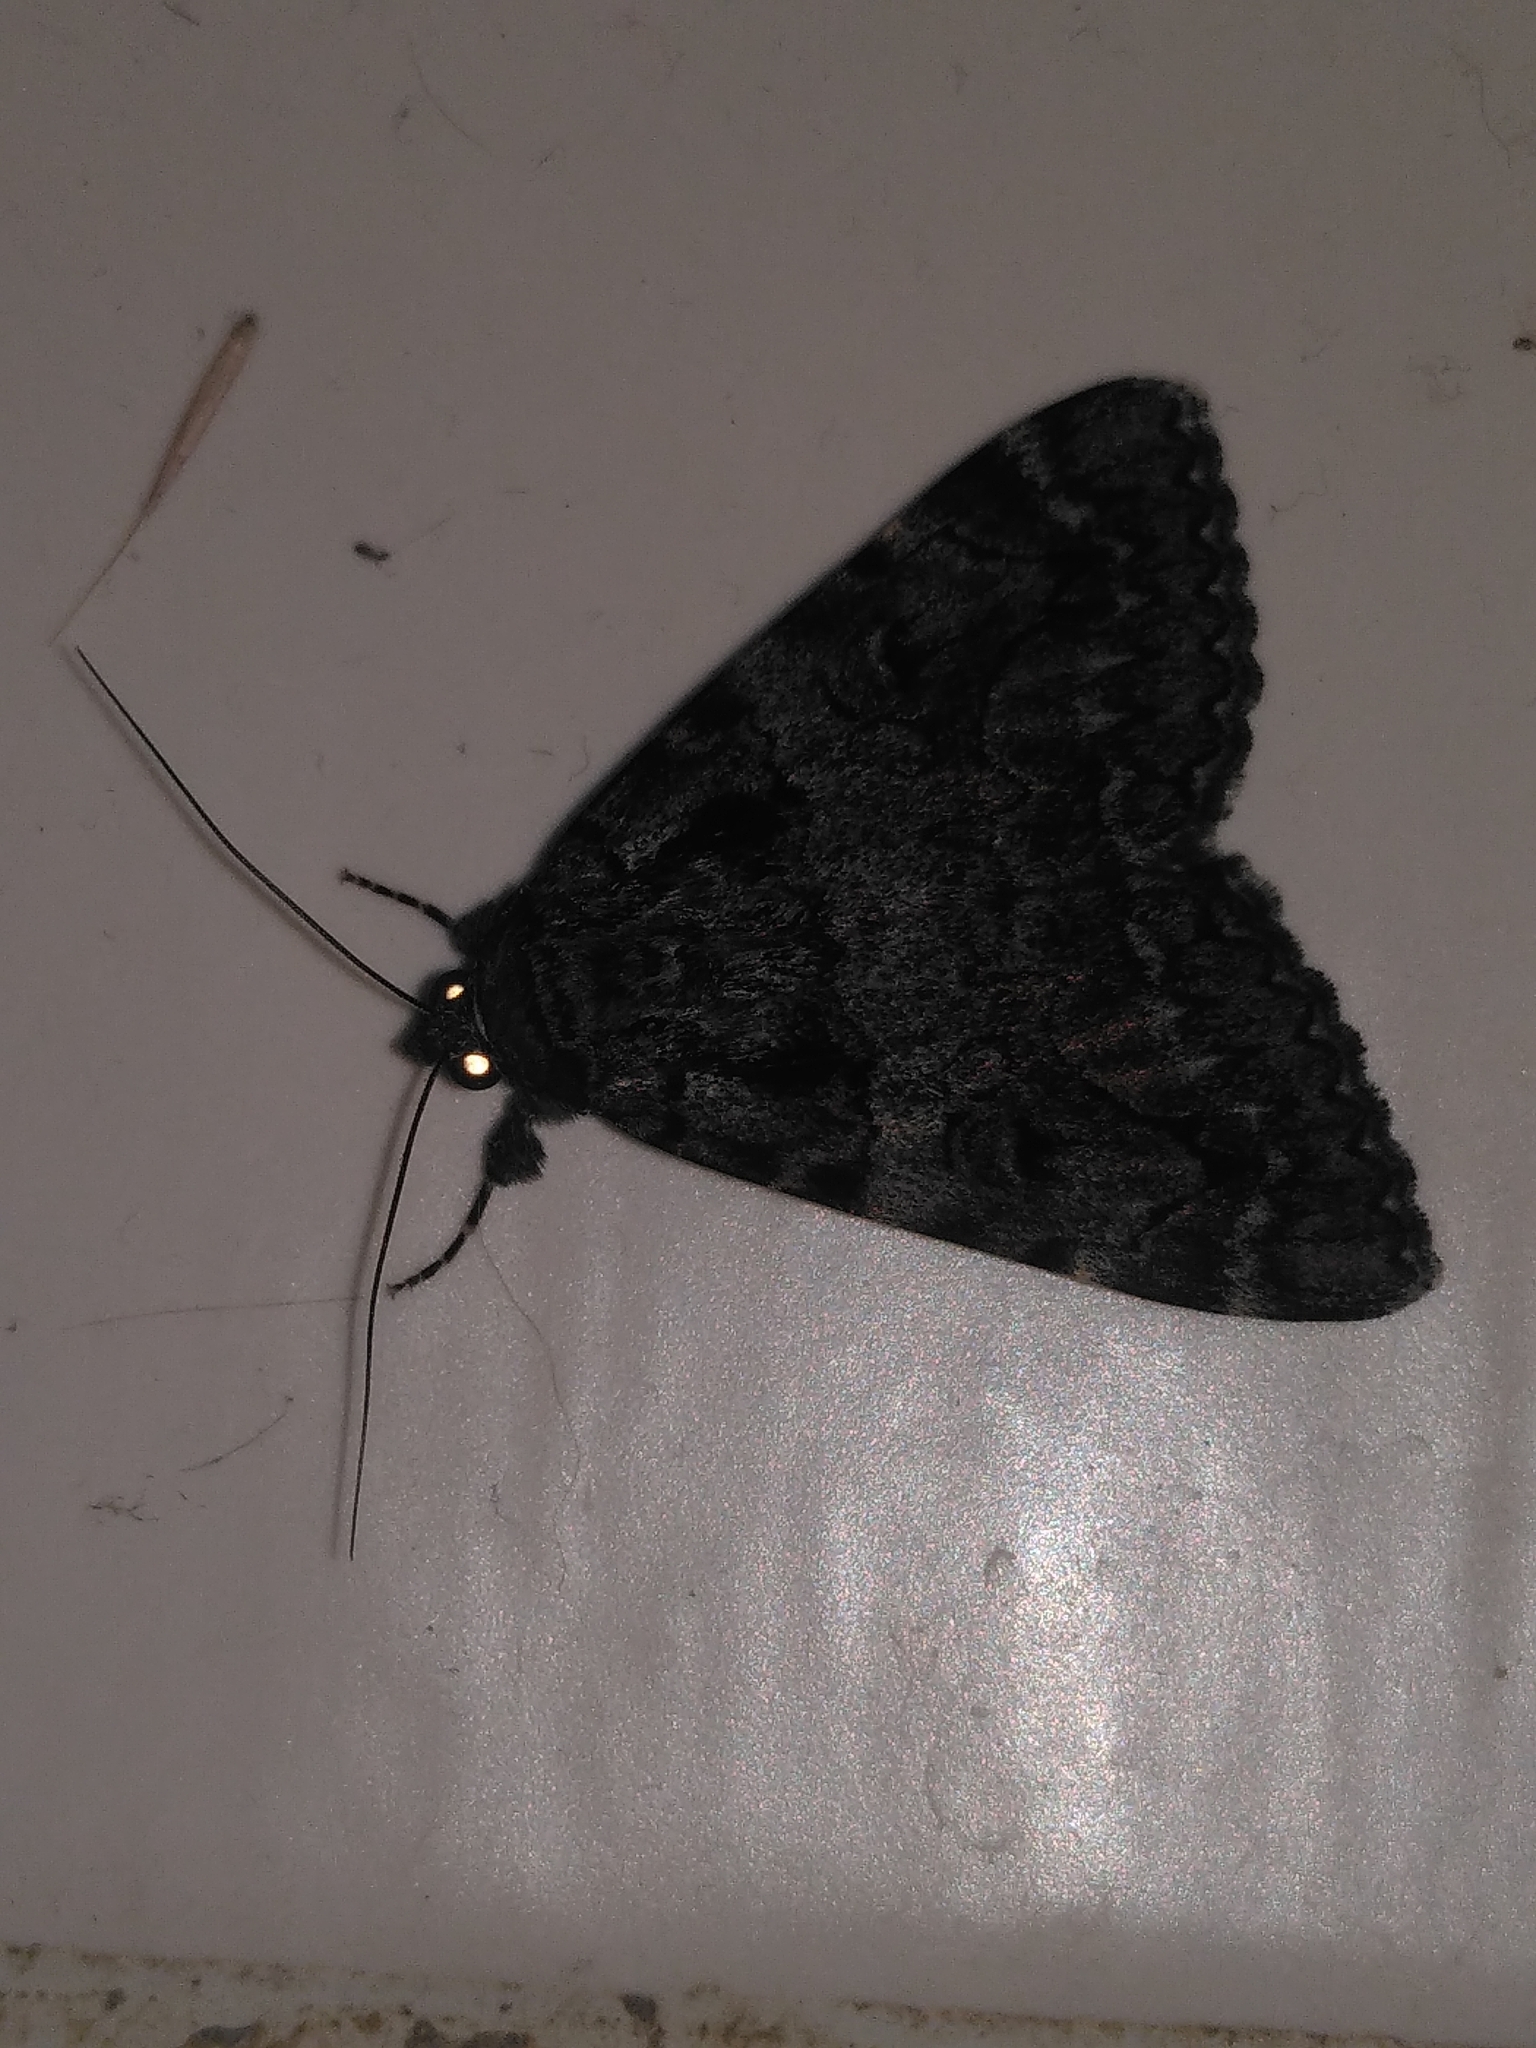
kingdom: Animalia
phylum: Arthropoda
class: Insecta
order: Lepidoptera
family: Erebidae
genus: Catocala
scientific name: Catocala coniuncta
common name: Minsmere crimson underwing
